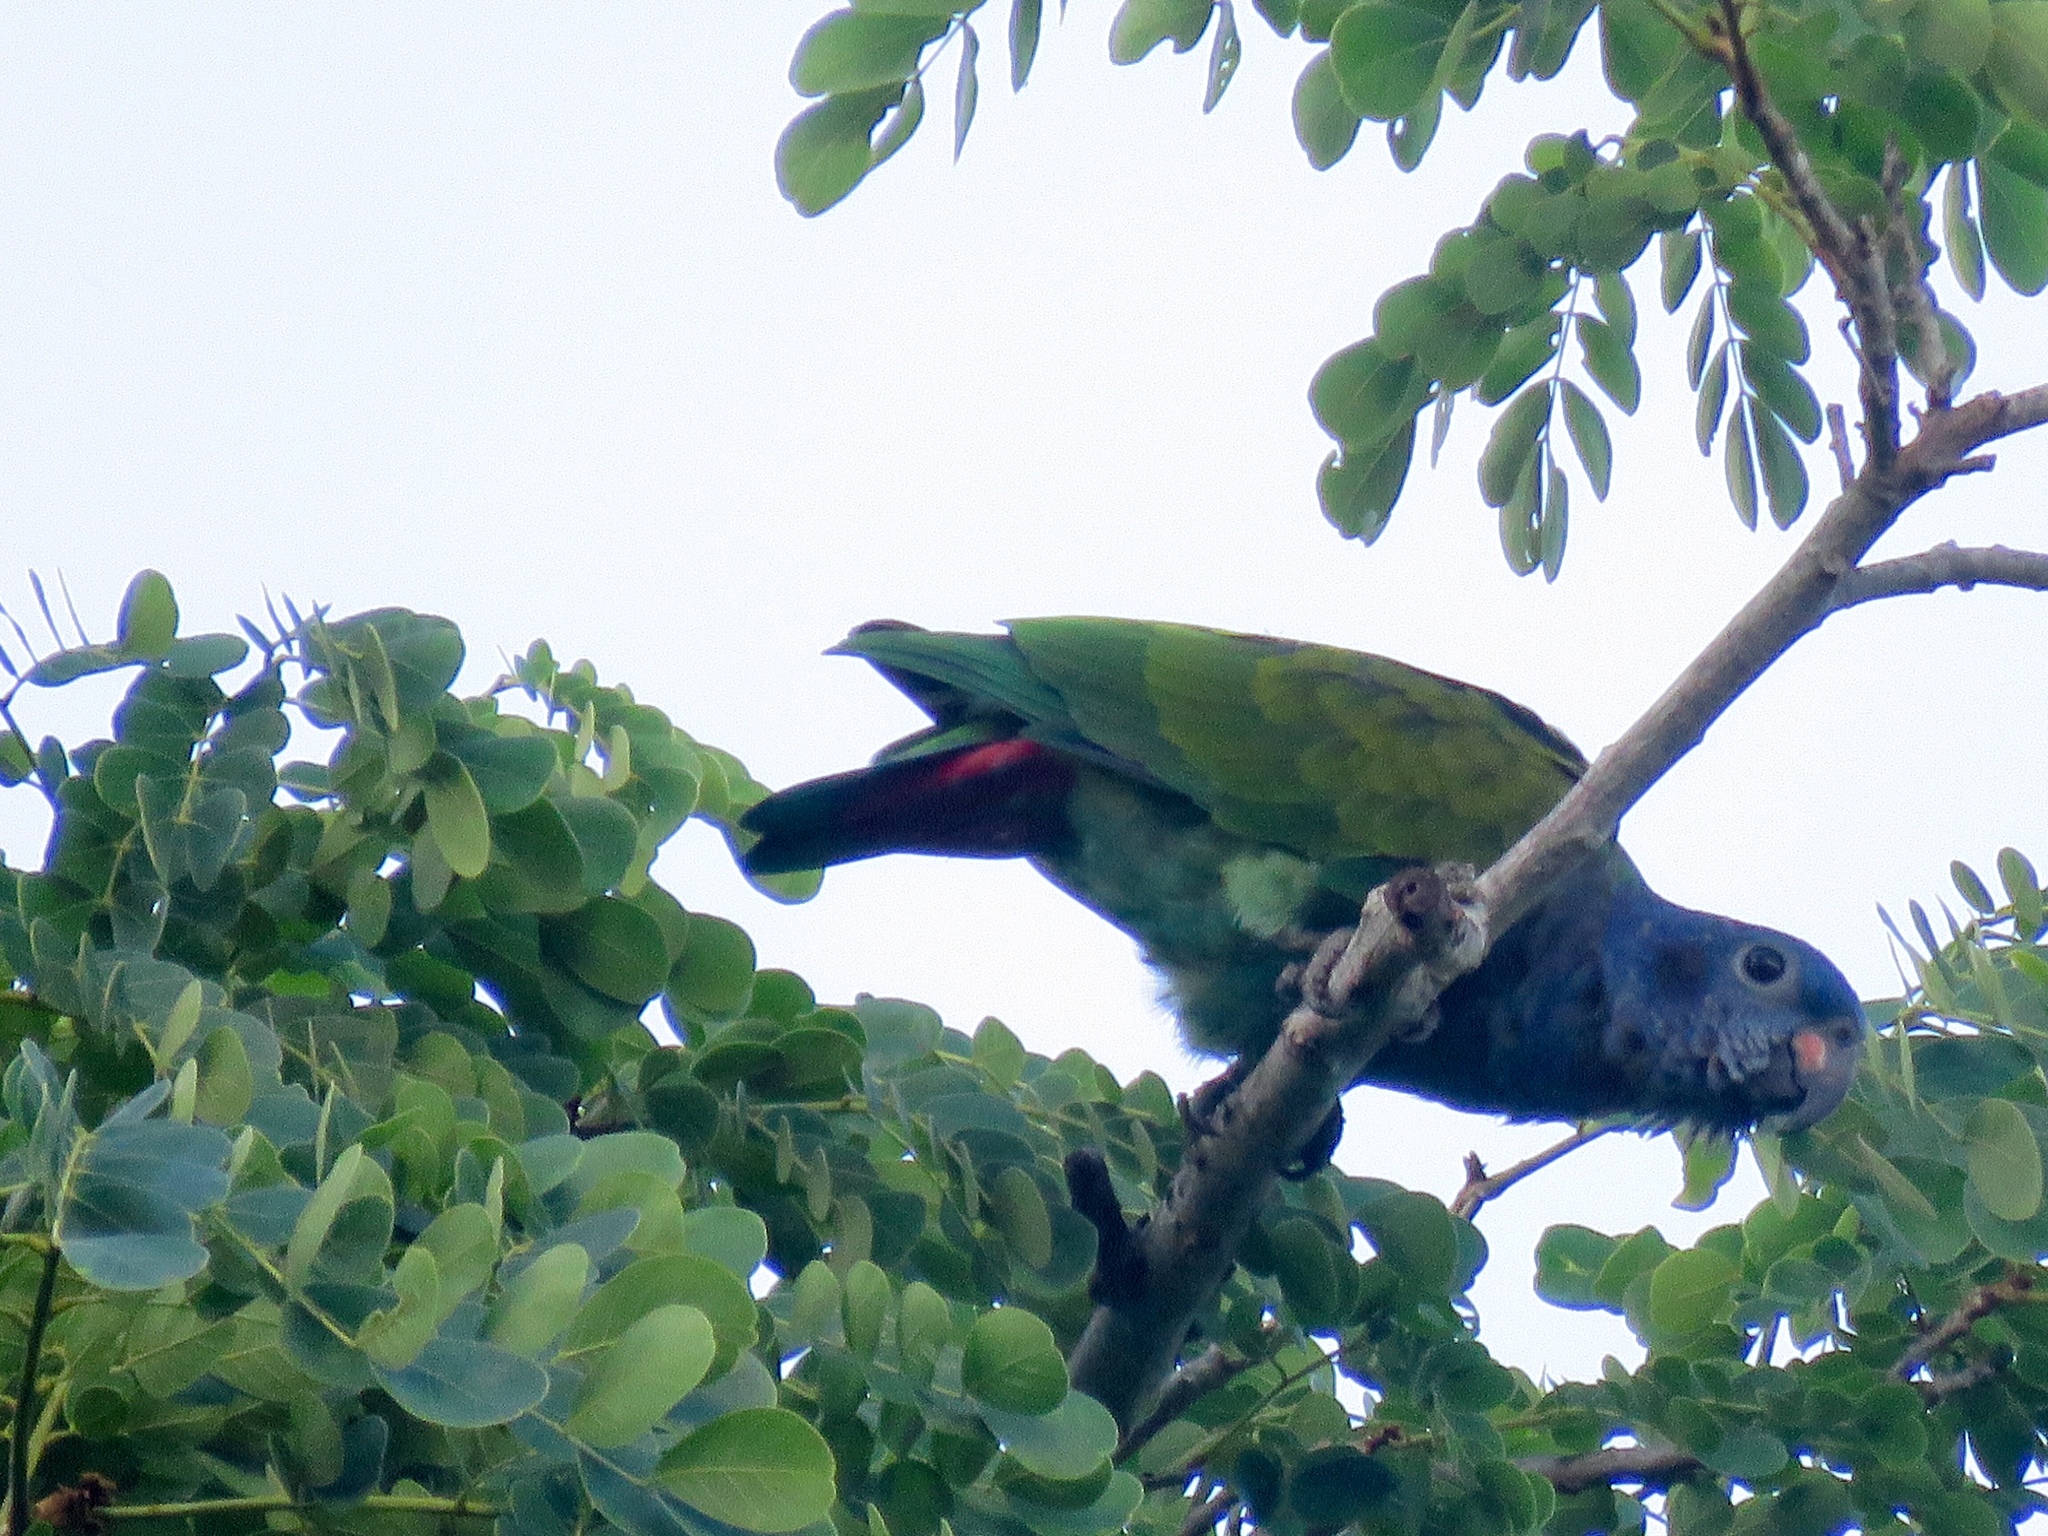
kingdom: Animalia
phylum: Chordata
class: Aves
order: Psittaciformes
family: Psittacidae
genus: Pionus
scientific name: Pionus menstruus
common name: Blue-headed parrot
